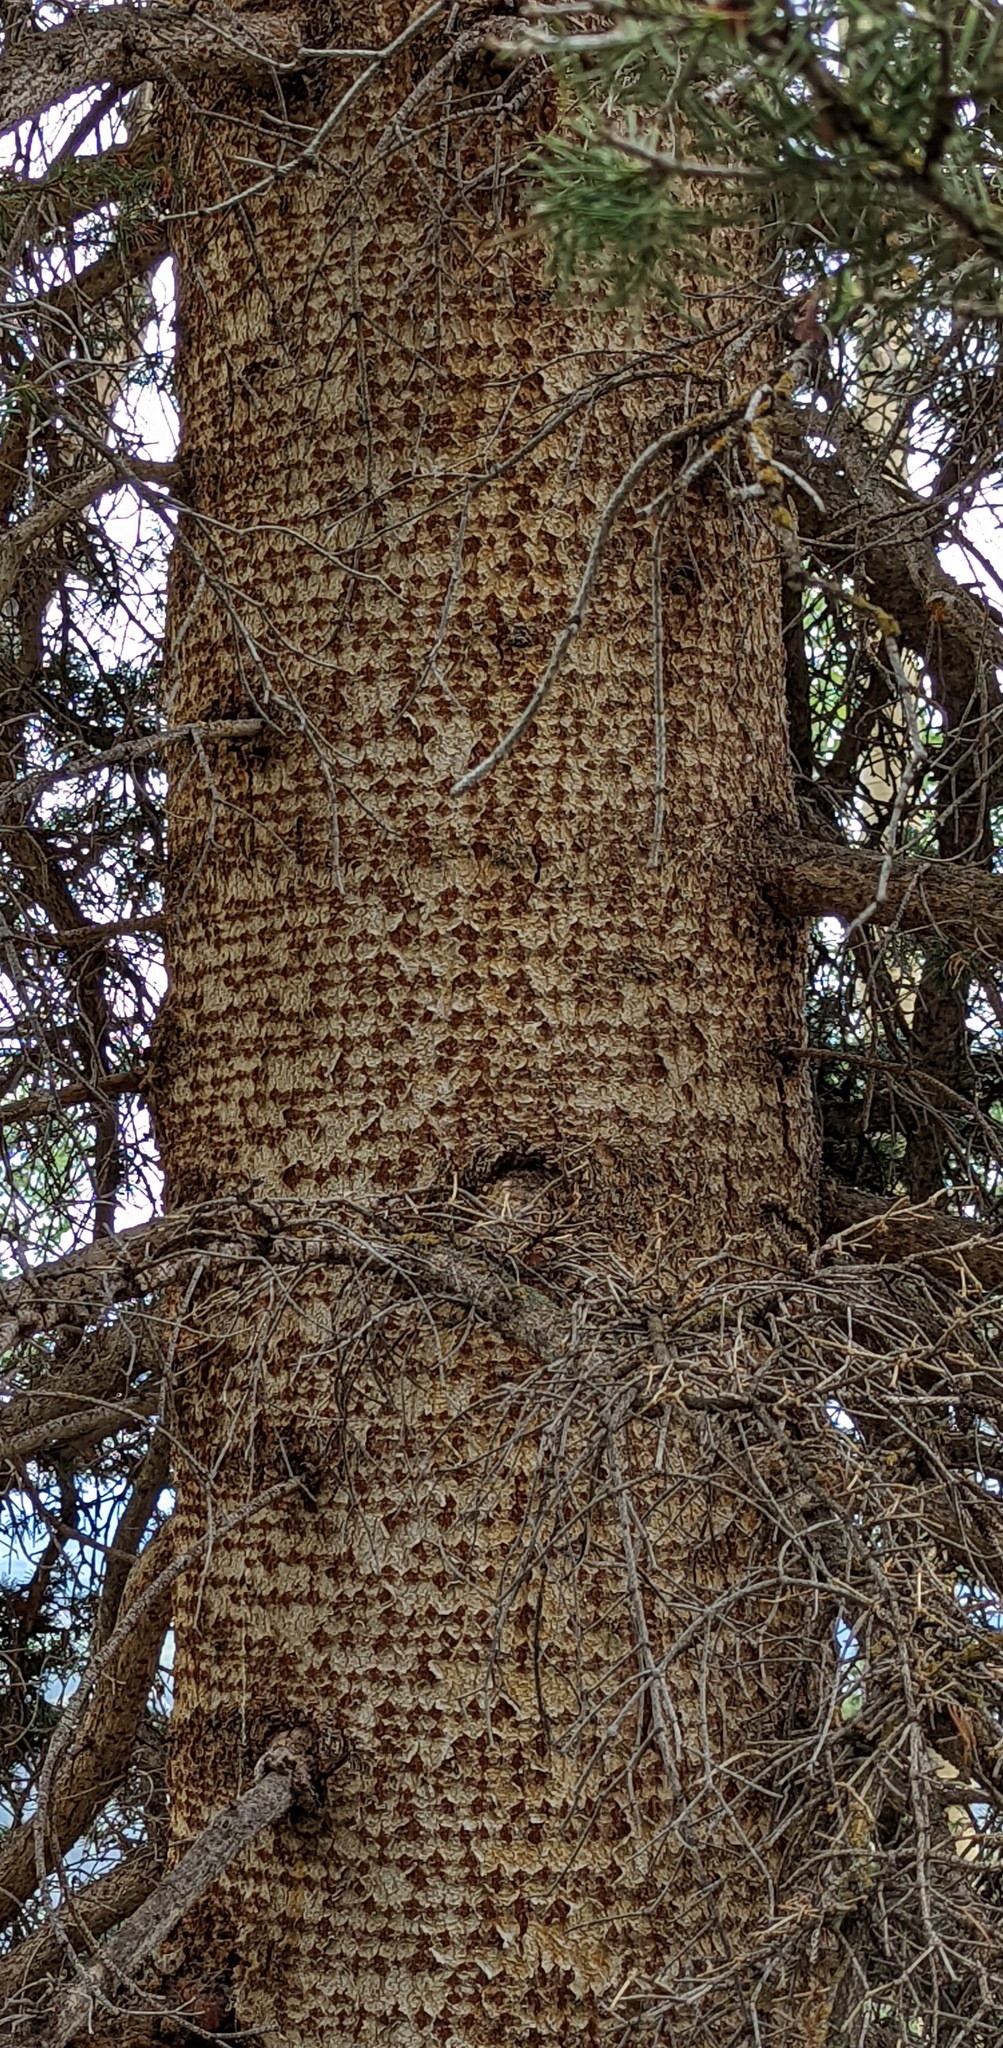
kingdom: Plantae
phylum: Tracheophyta
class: Pinopsida
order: Pinales
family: Pinaceae
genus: Abies
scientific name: Abies lasiocarpa
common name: Subalpine fir
